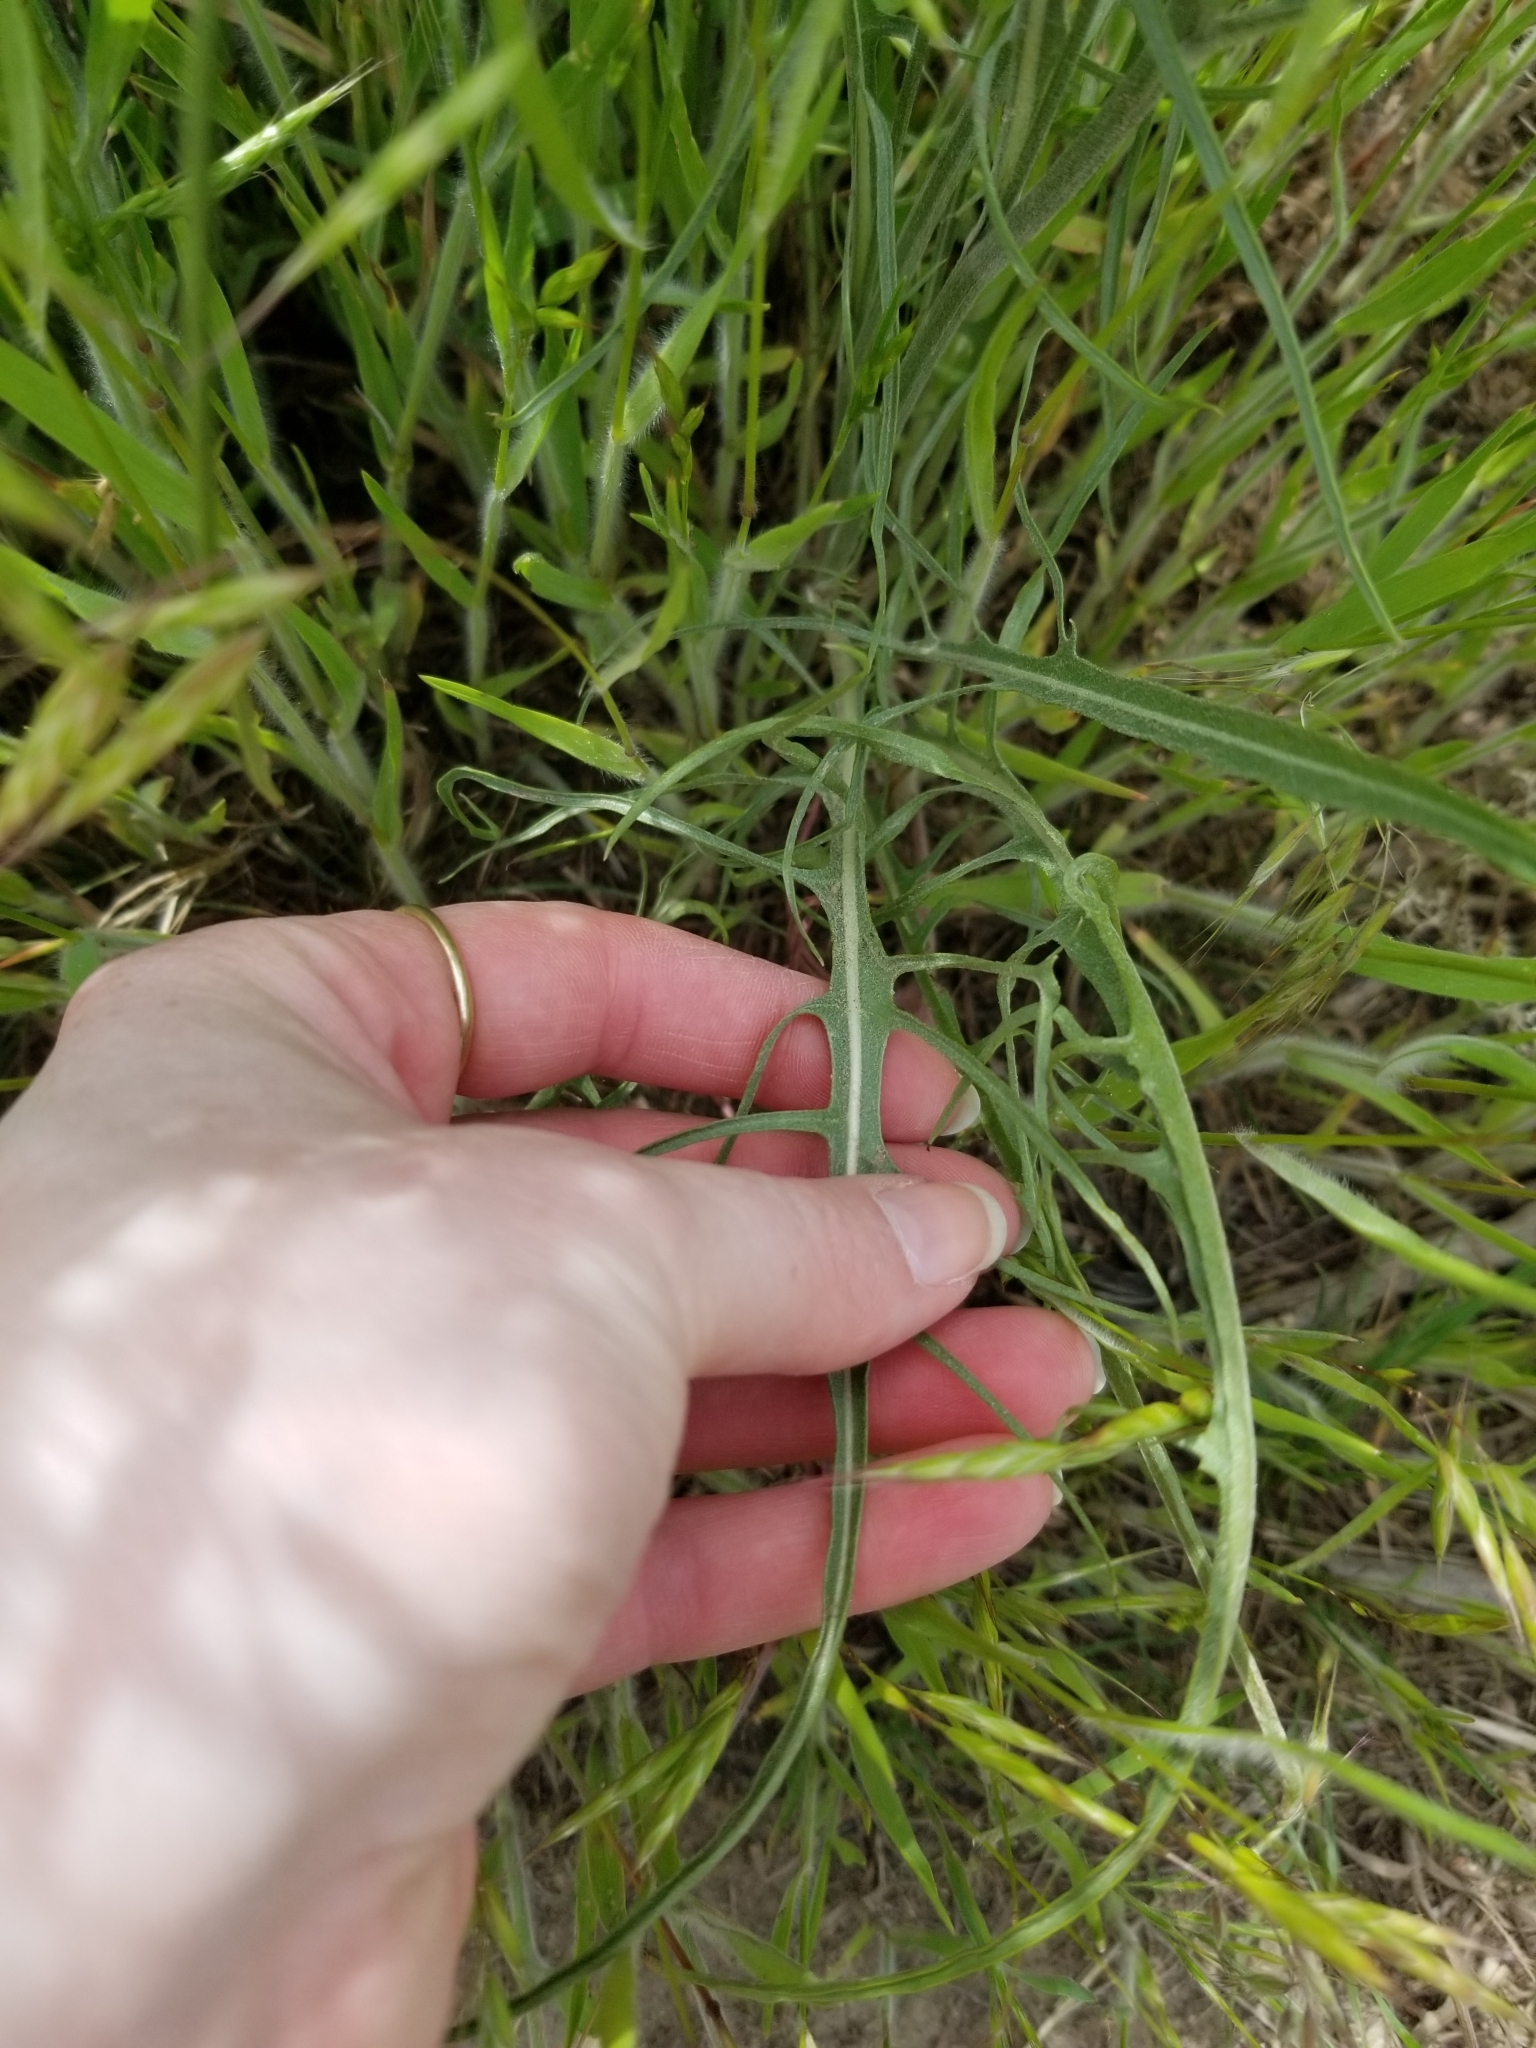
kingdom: Plantae
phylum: Tracheophyta
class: Magnoliopsida
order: Asterales
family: Asteraceae
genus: Crepis
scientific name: Crepis atribarba
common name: Dark hawk's-beard
